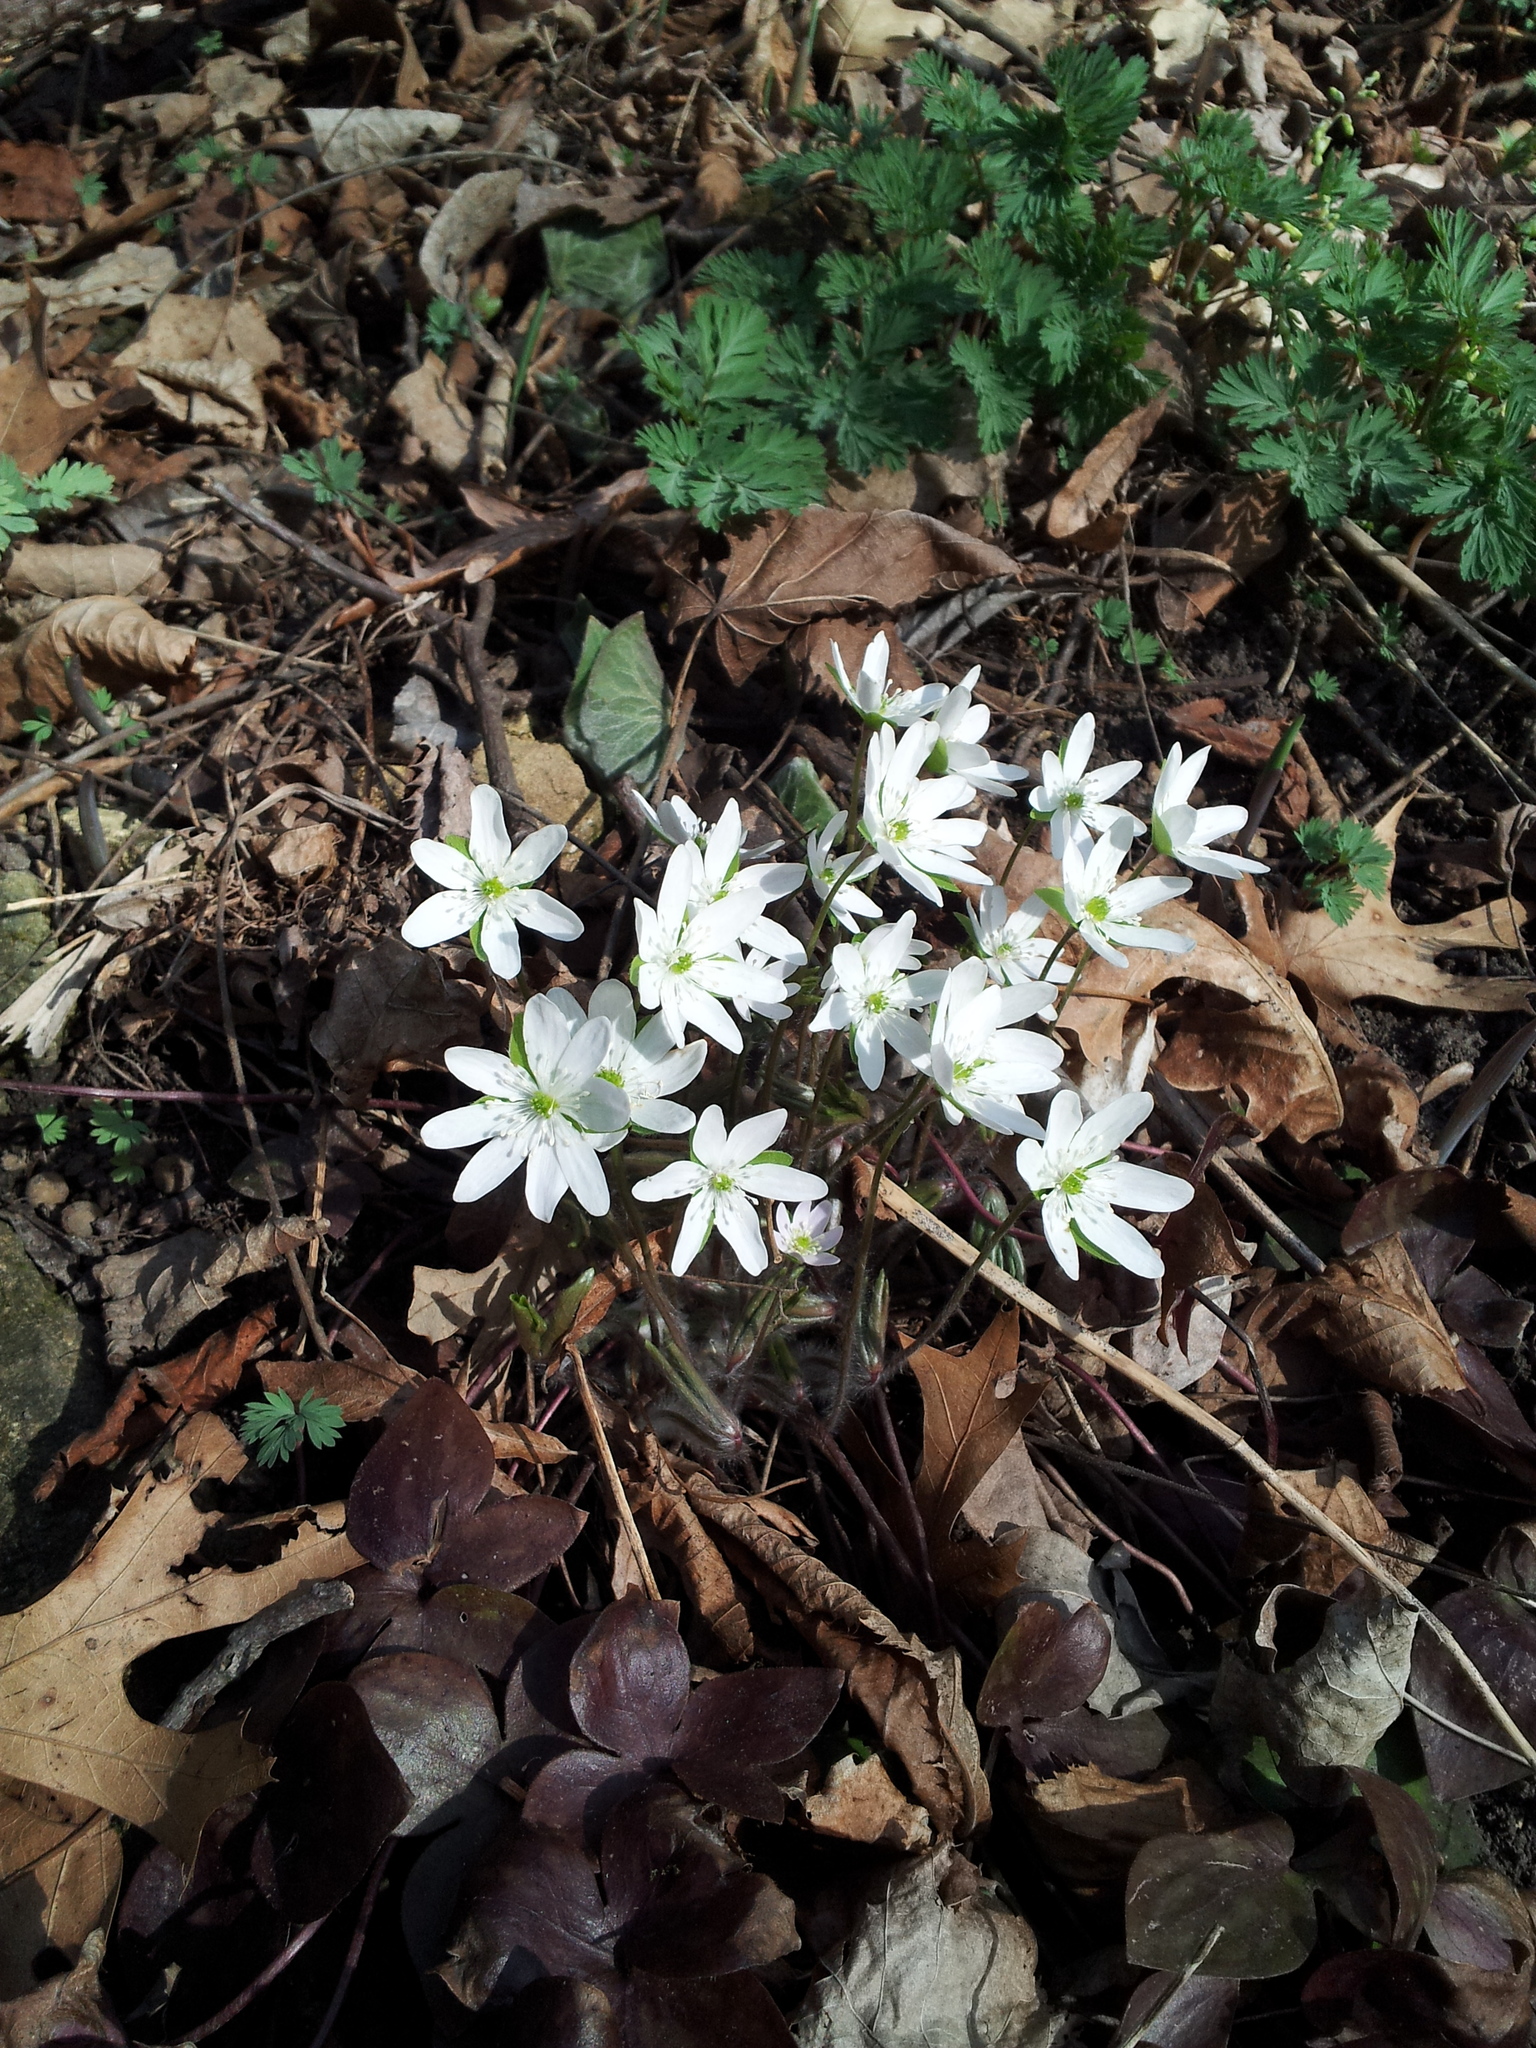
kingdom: Plantae
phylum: Tracheophyta
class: Magnoliopsida
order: Ranunculales
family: Ranunculaceae
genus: Hepatica
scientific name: Hepatica acutiloba
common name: Sharp-lobed hepatica
